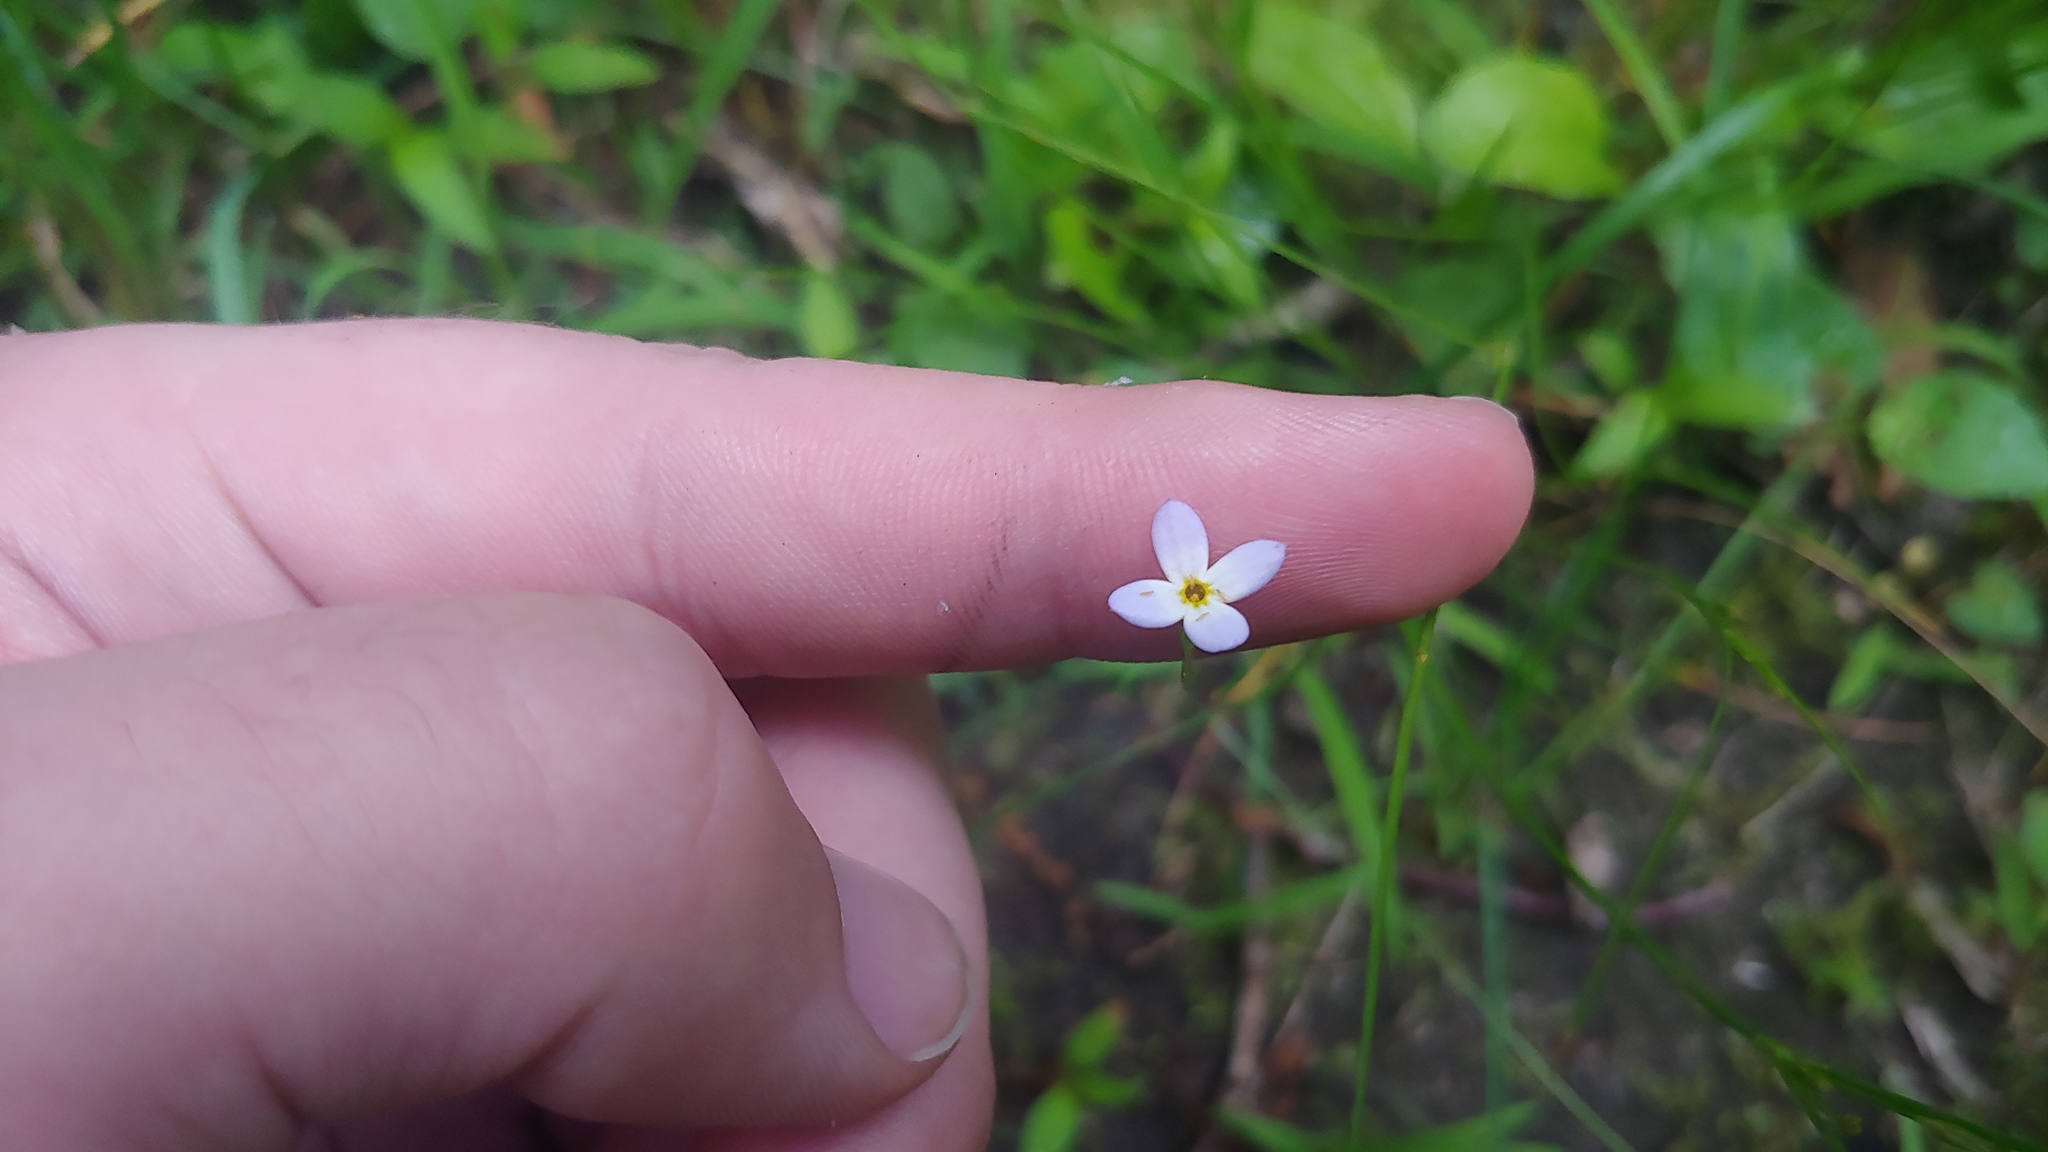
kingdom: Plantae
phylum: Tracheophyta
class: Magnoliopsida
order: Gentianales
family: Rubiaceae
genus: Houstonia
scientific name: Houstonia caerulea
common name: Bluets
